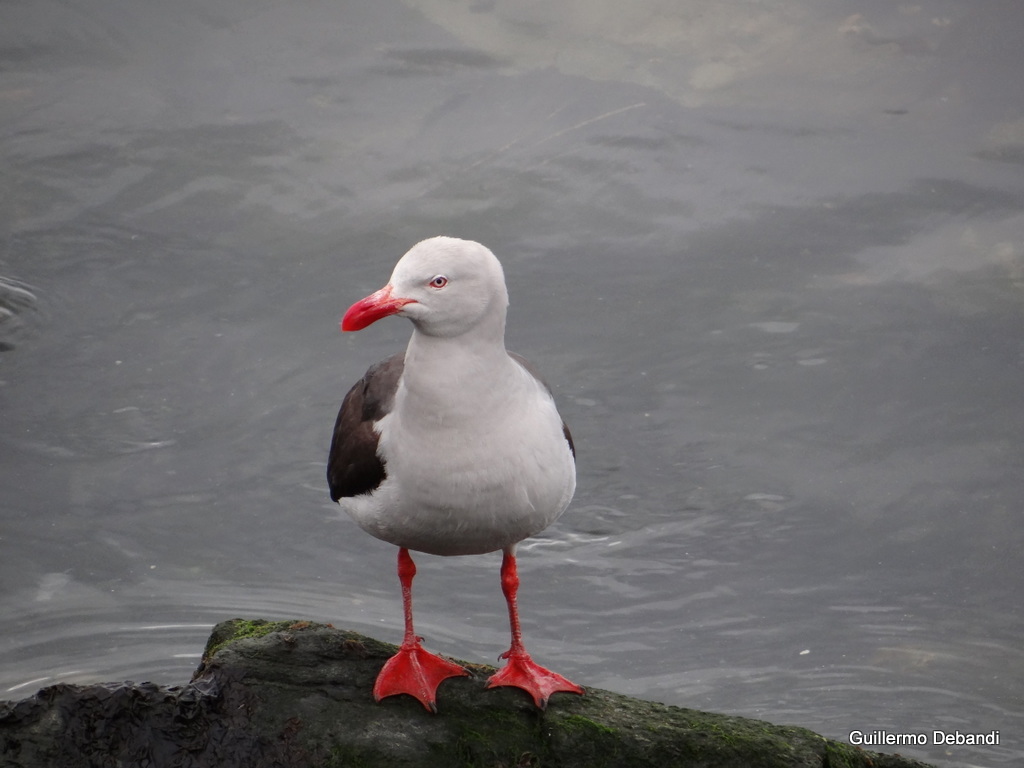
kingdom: Animalia
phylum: Chordata
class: Aves
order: Charadriiformes
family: Laridae
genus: Leucophaeus
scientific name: Leucophaeus scoresbii
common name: Dolphin gull
